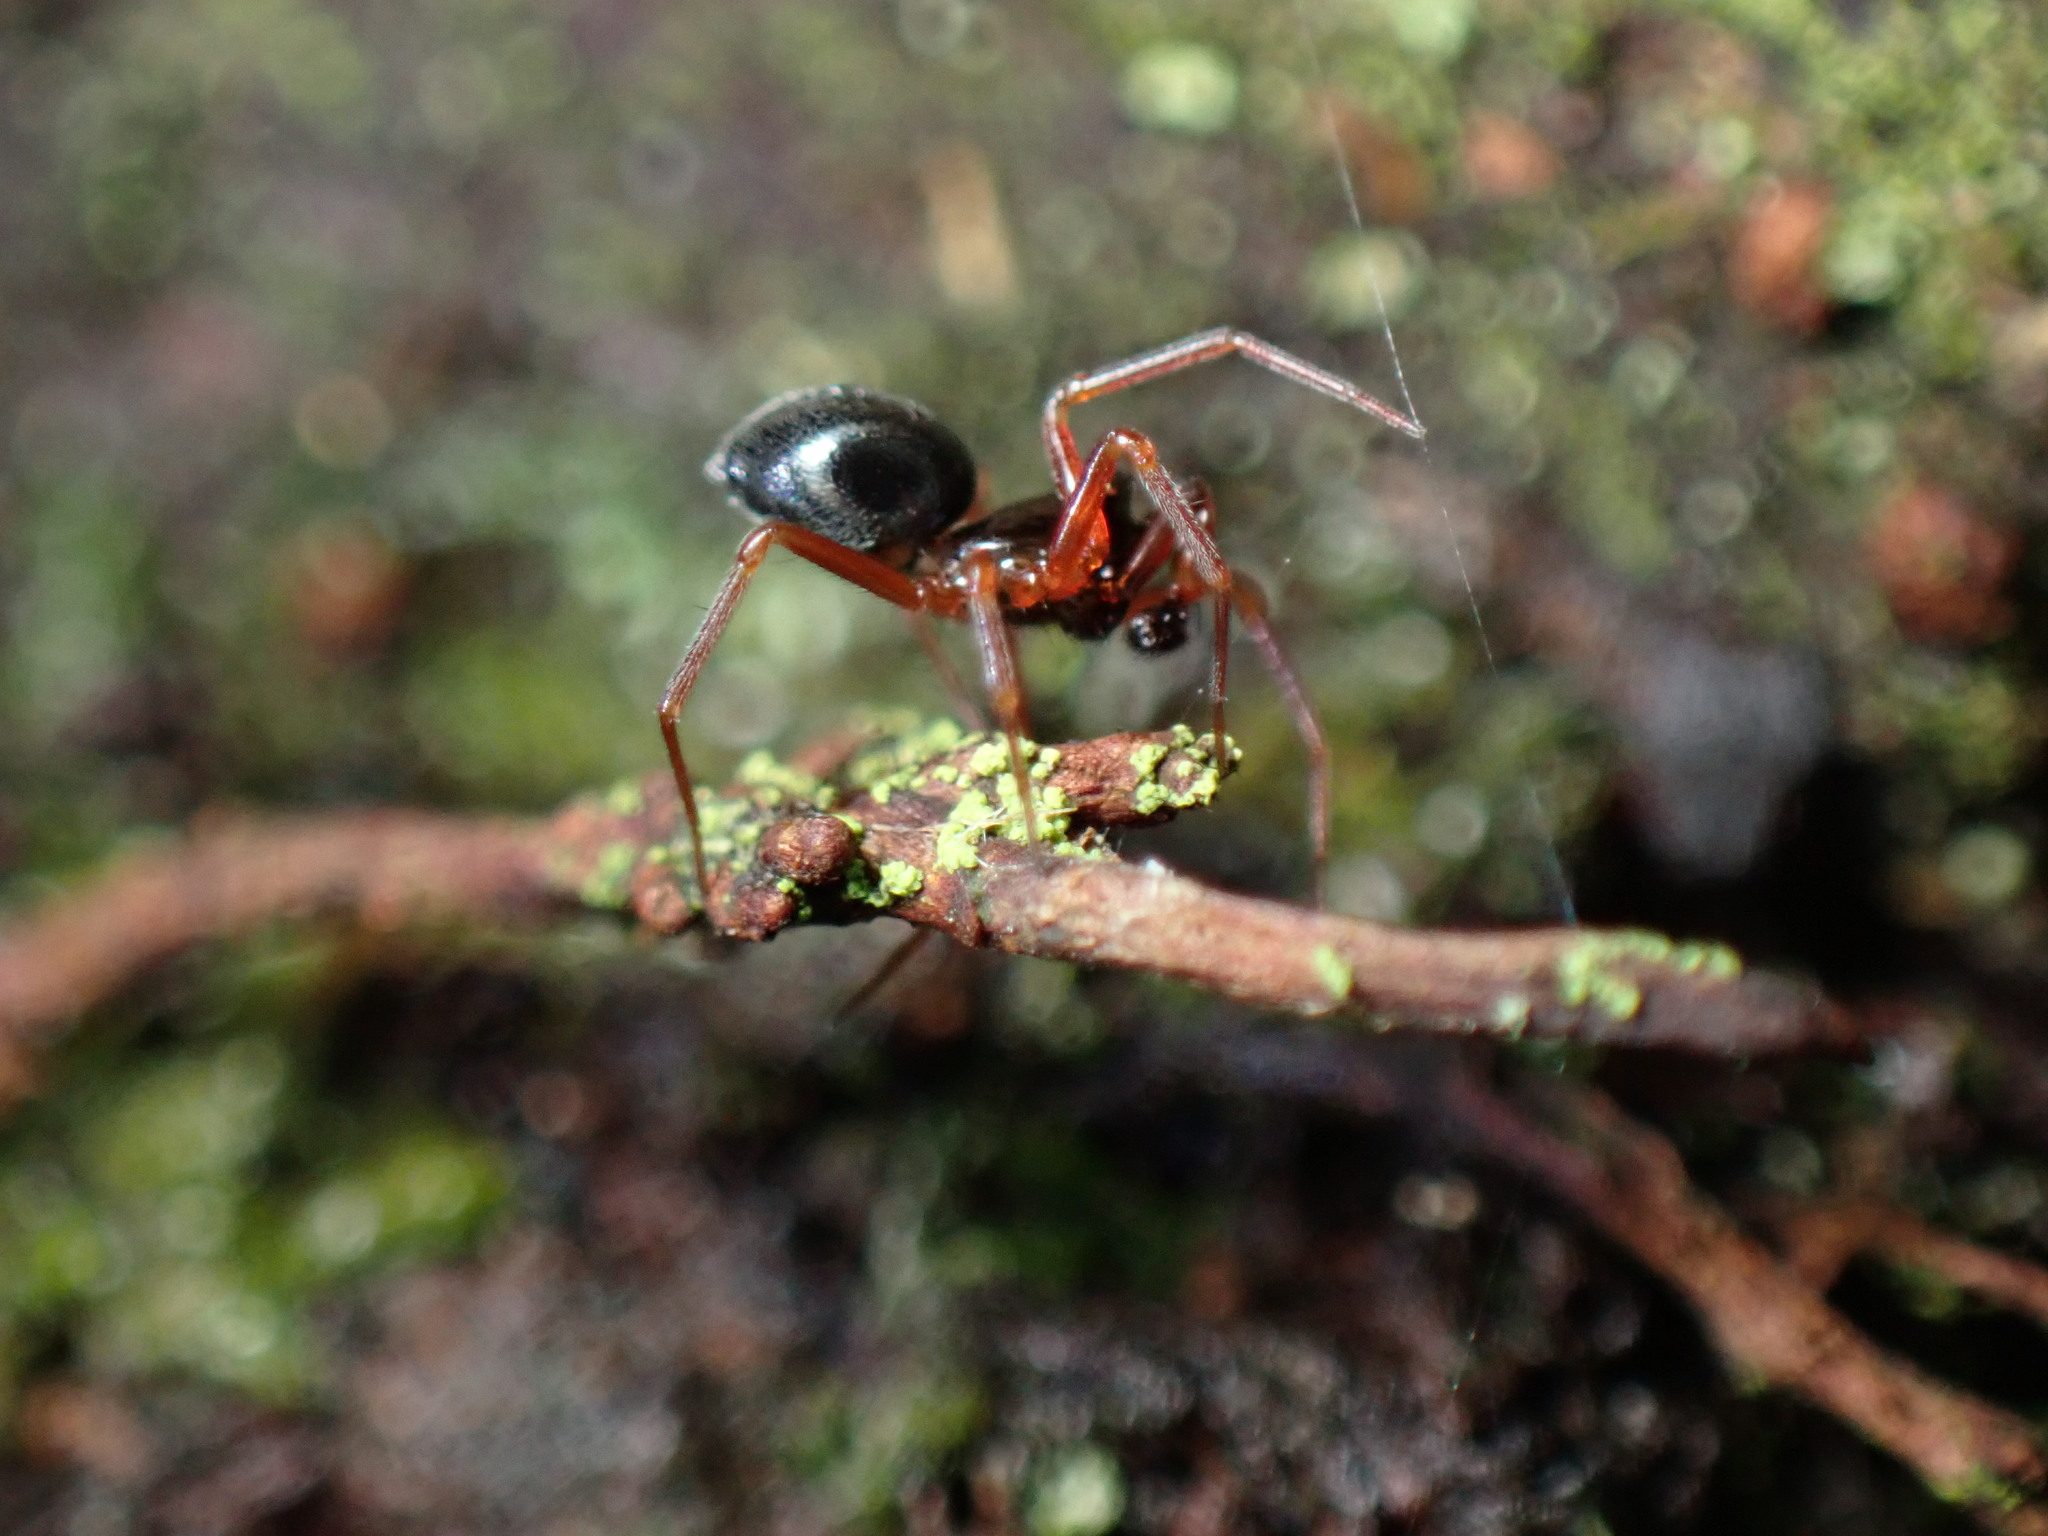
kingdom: Animalia
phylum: Arthropoda
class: Arachnida
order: Araneae
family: Linyphiidae
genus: Coreorgonal
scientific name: Coreorgonal monoceros
